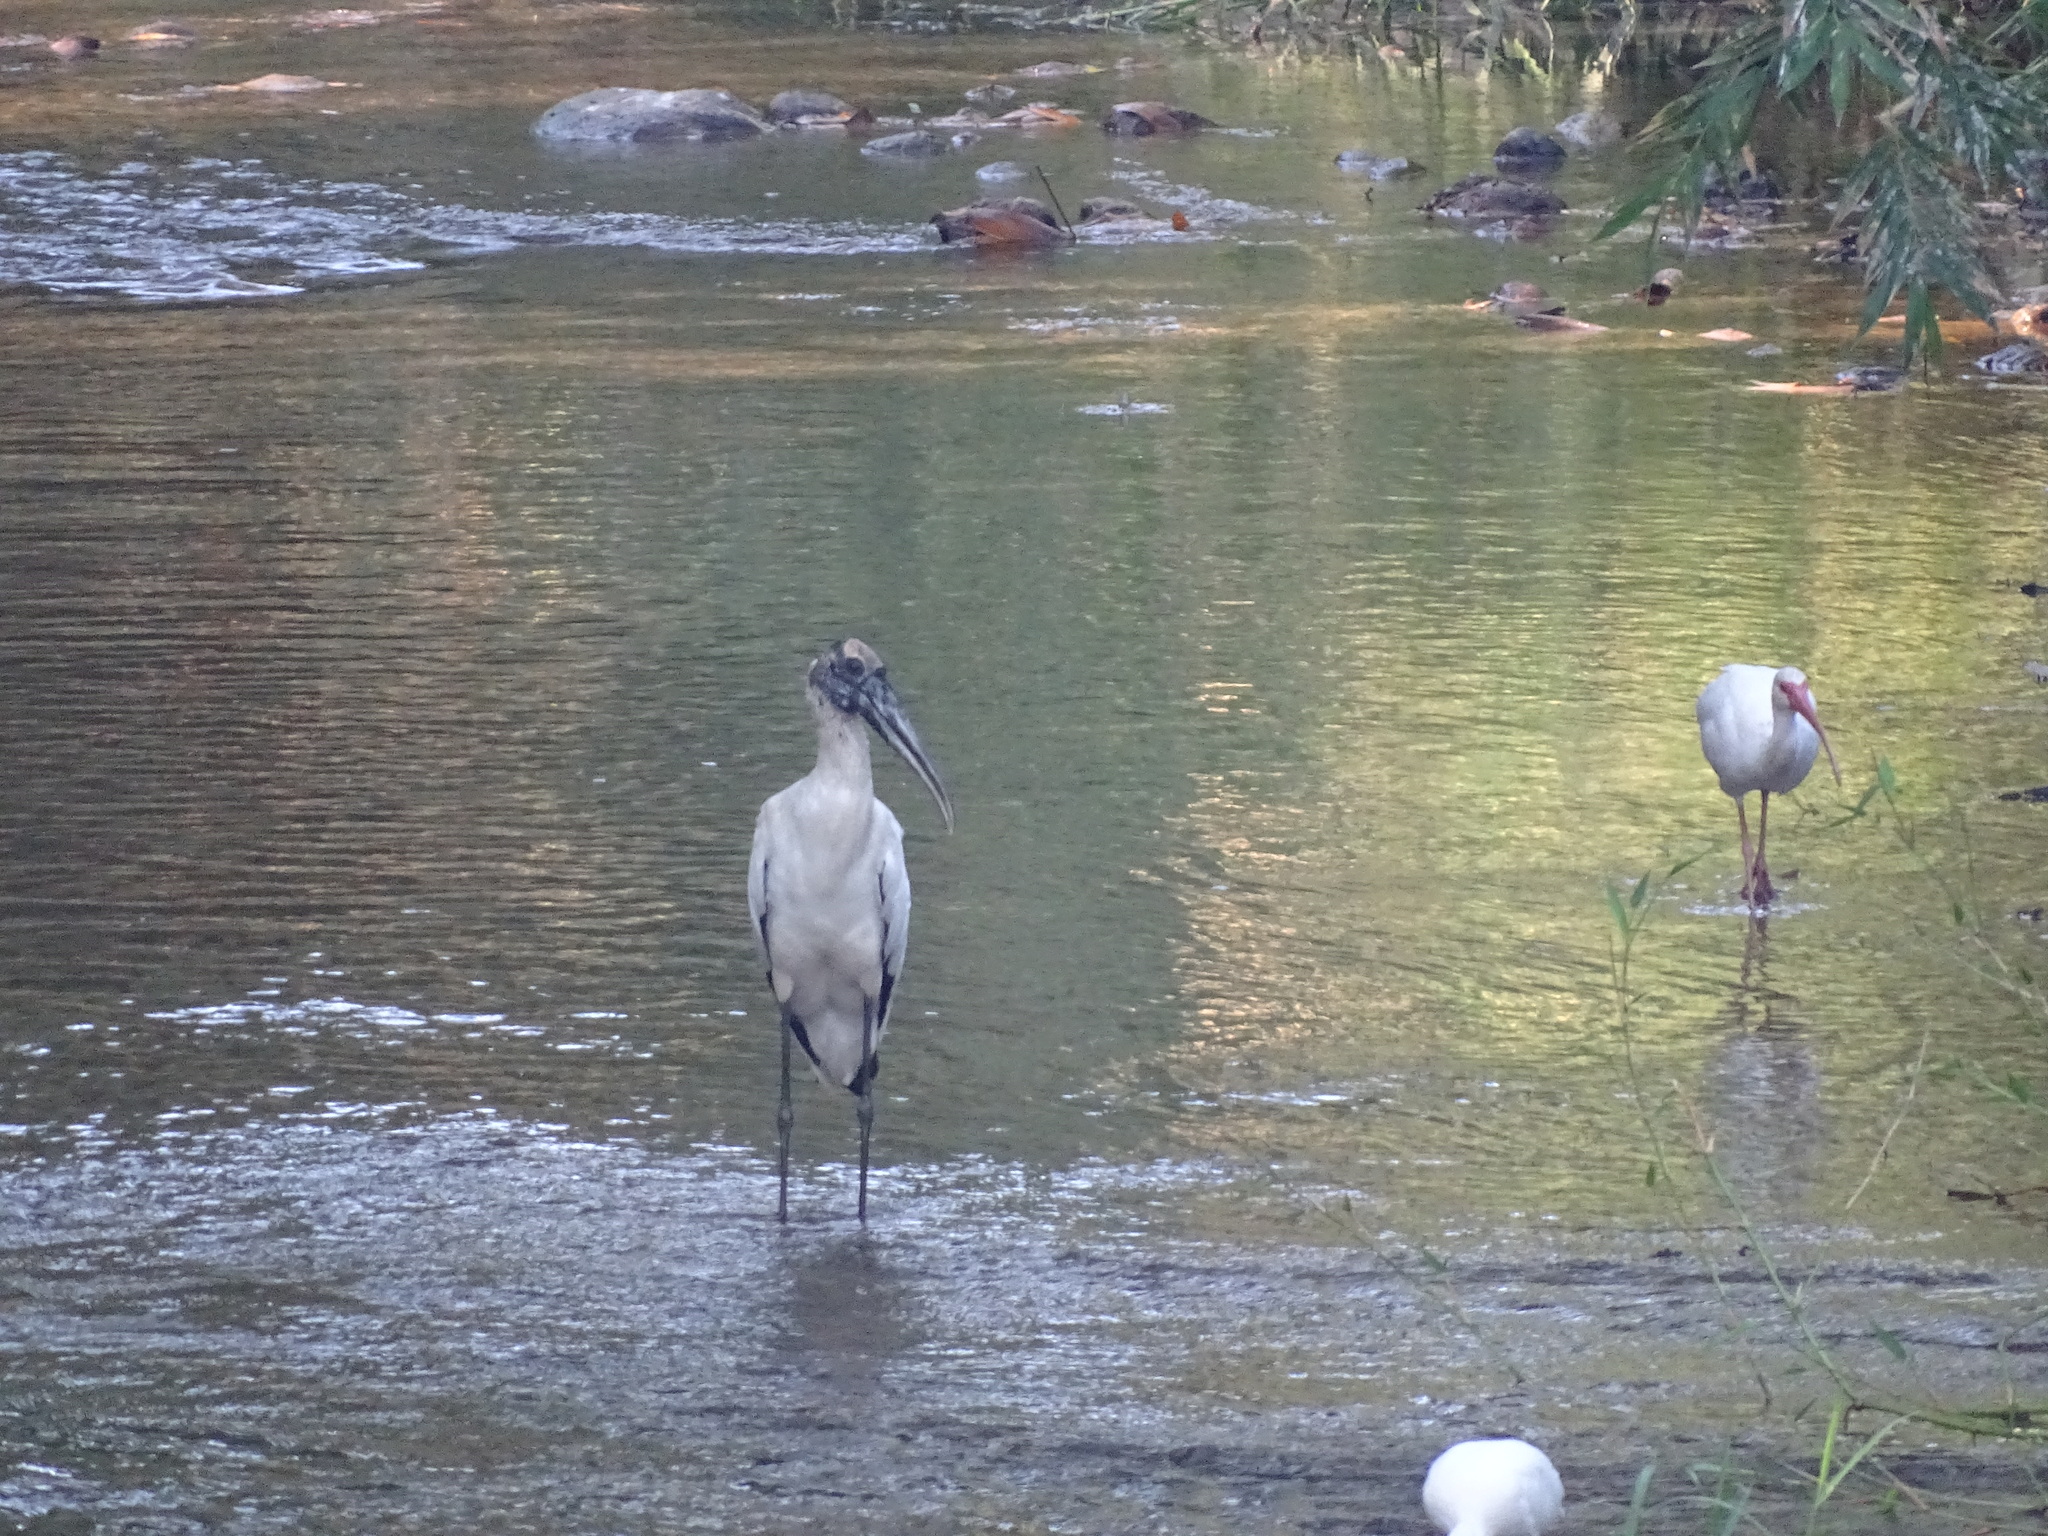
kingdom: Animalia
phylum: Chordata
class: Aves
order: Ciconiiformes
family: Ciconiidae
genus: Mycteria
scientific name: Mycteria americana
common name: Wood stork
